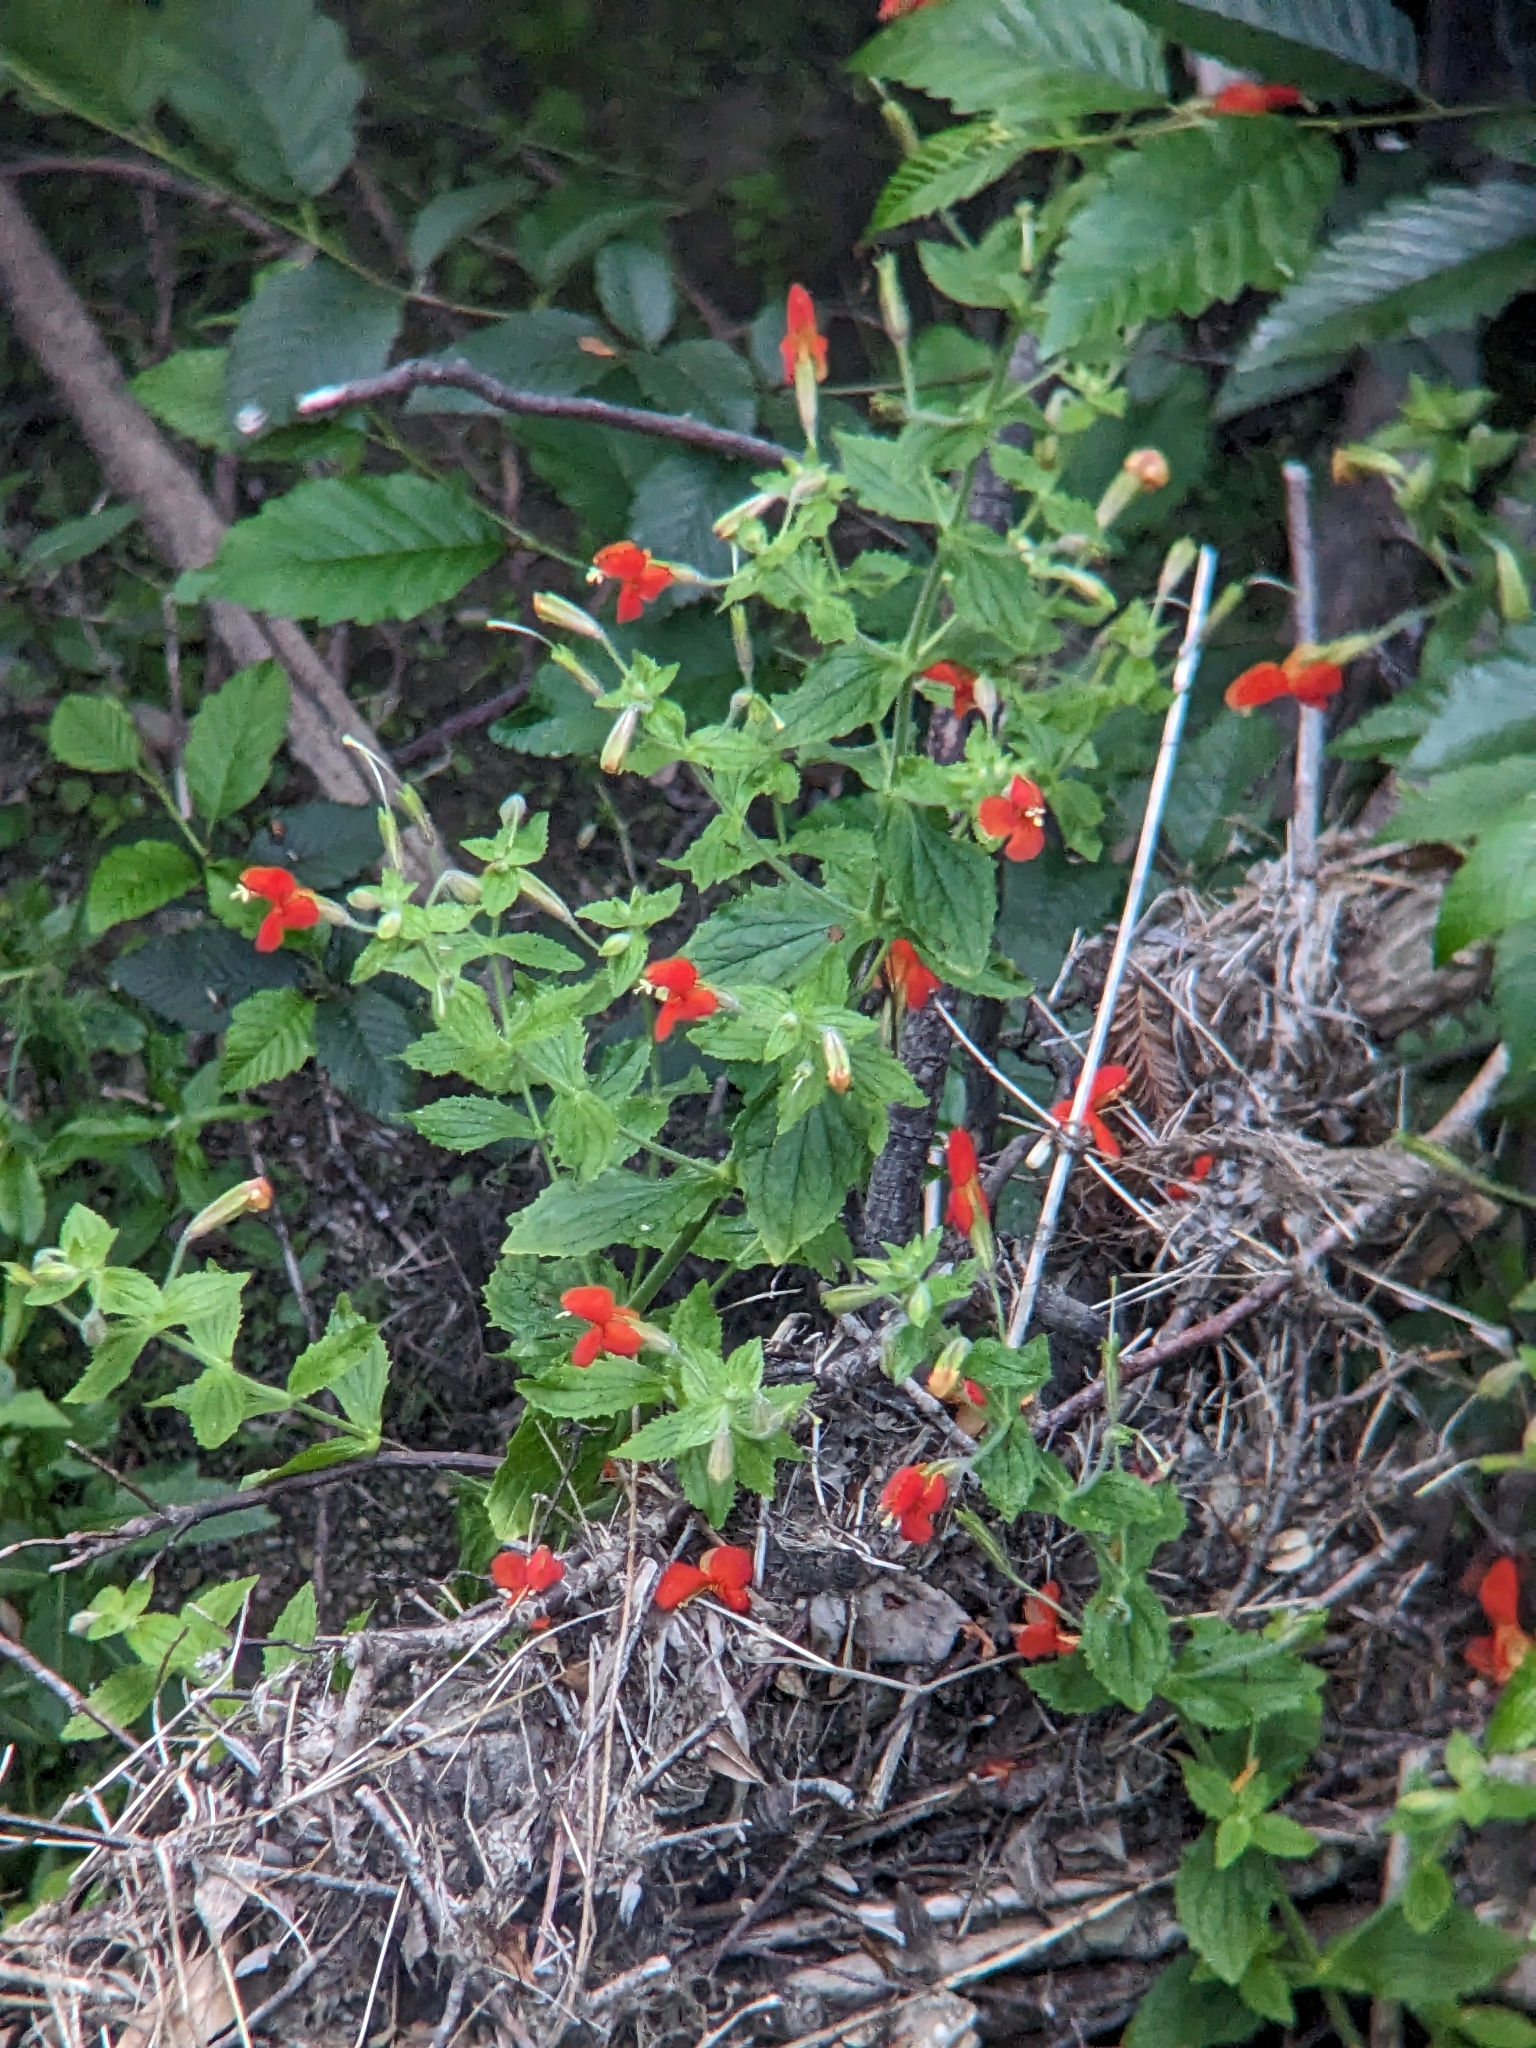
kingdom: Plantae
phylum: Tracheophyta
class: Magnoliopsida
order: Lamiales
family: Phrymaceae
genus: Erythranthe
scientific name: Erythranthe cardinalis
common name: Scarlet monkey-flower
